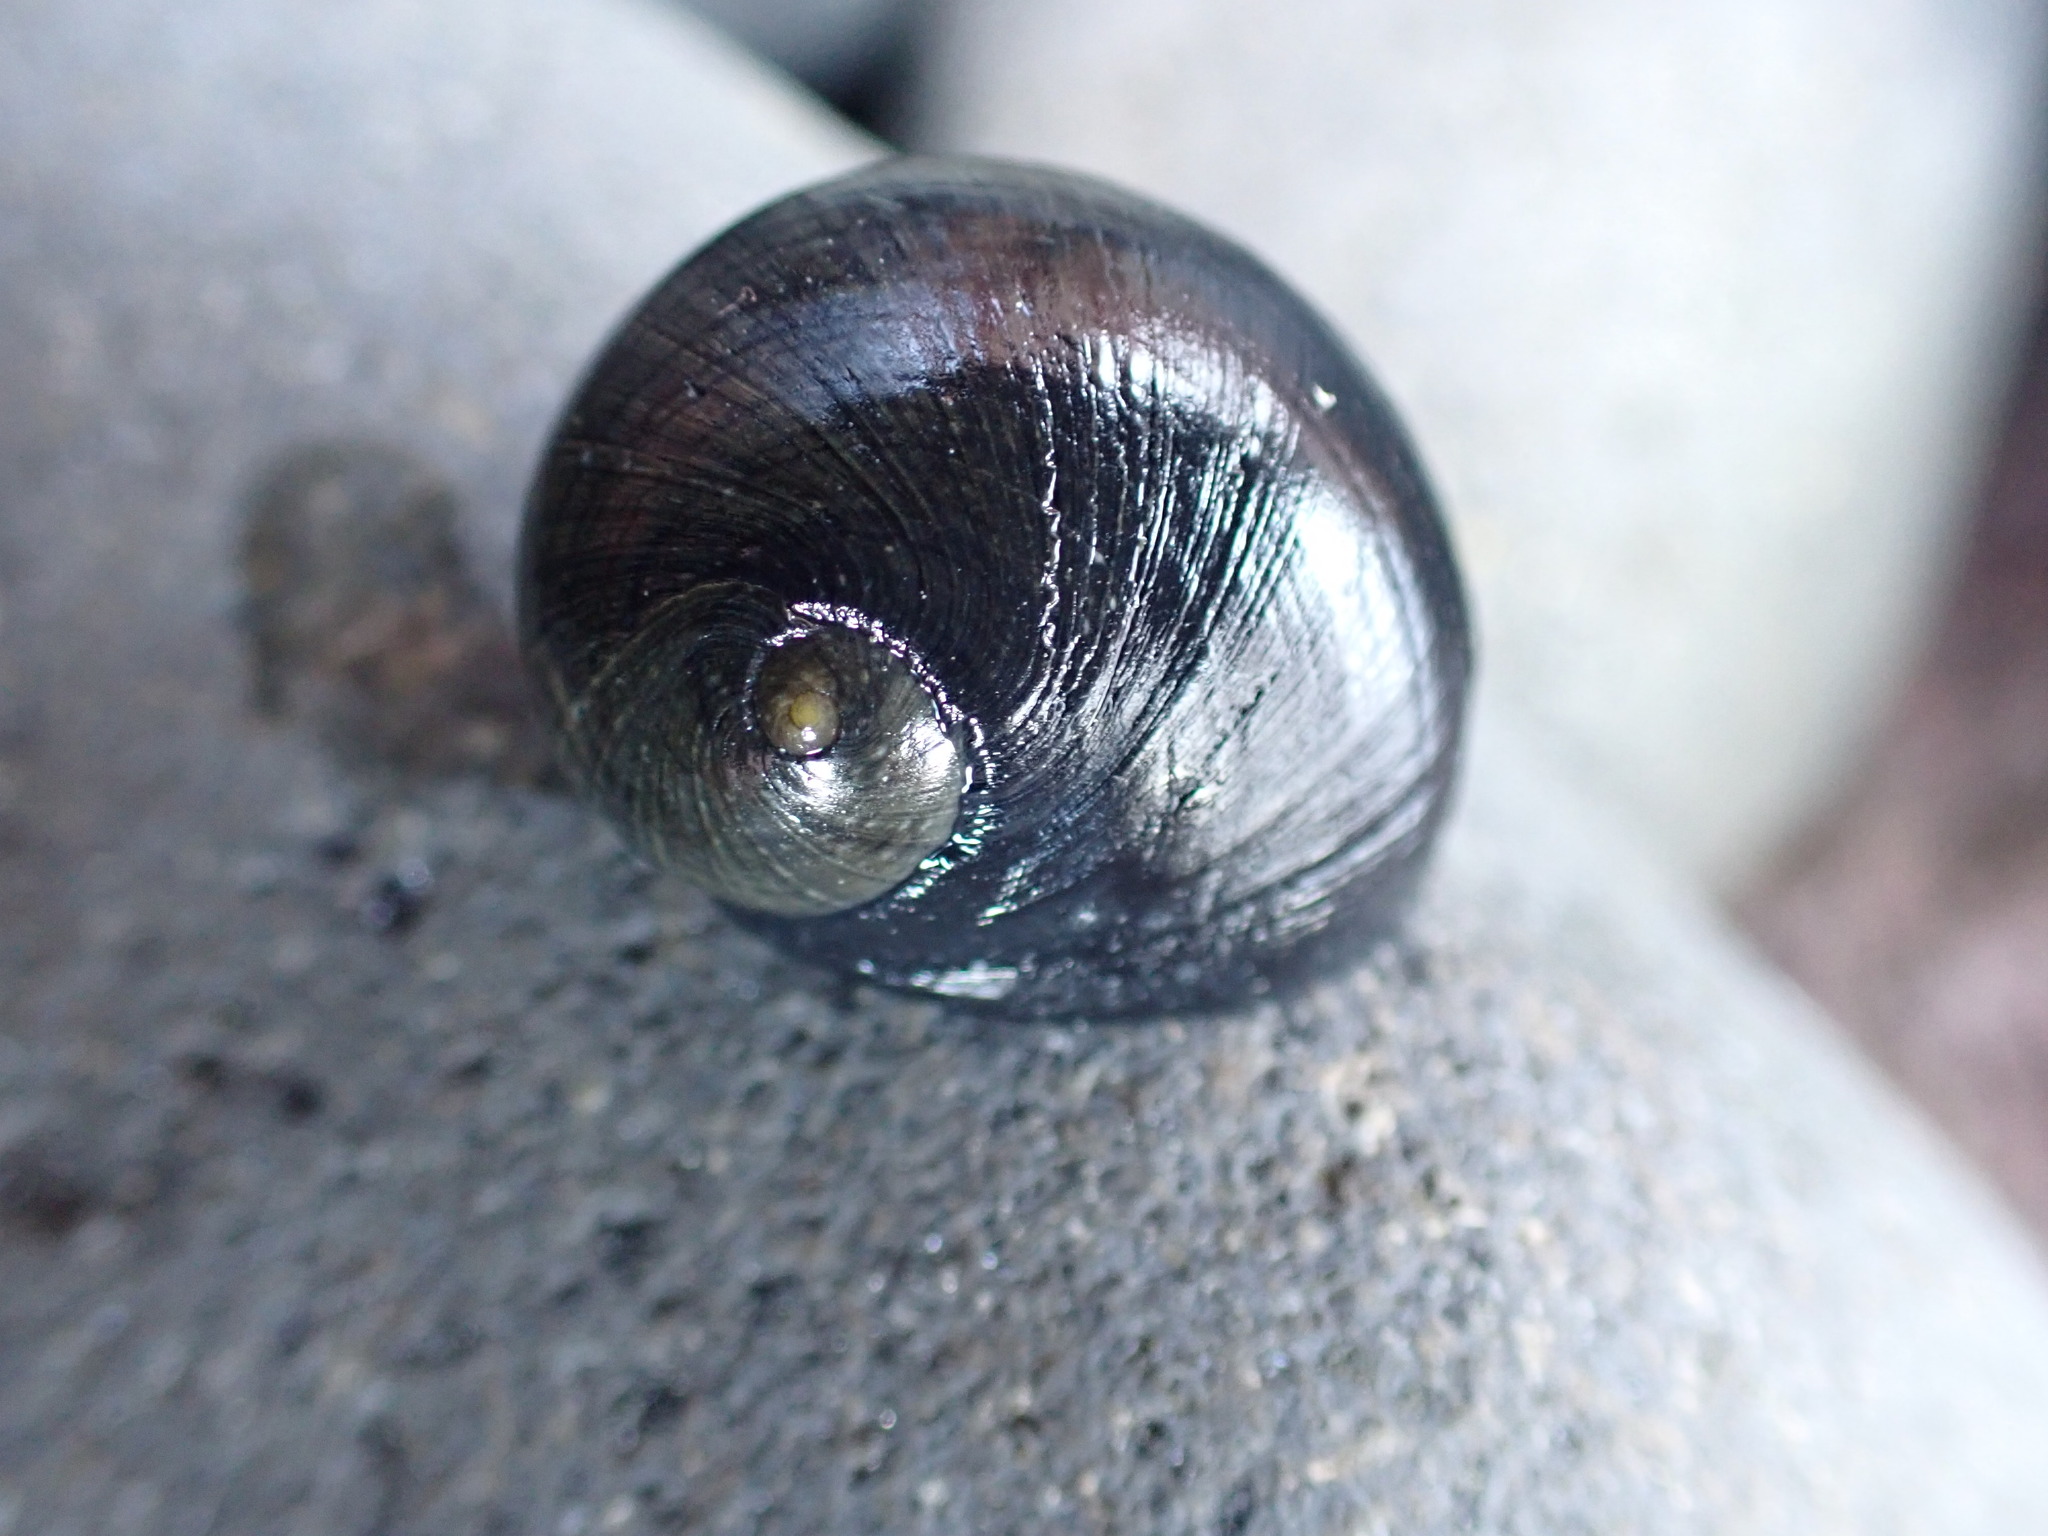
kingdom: Animalia
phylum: Mollusca
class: Gastropoda
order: Cycloneritida
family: Neritidae
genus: Nerita
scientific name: Nerita melanotragus
